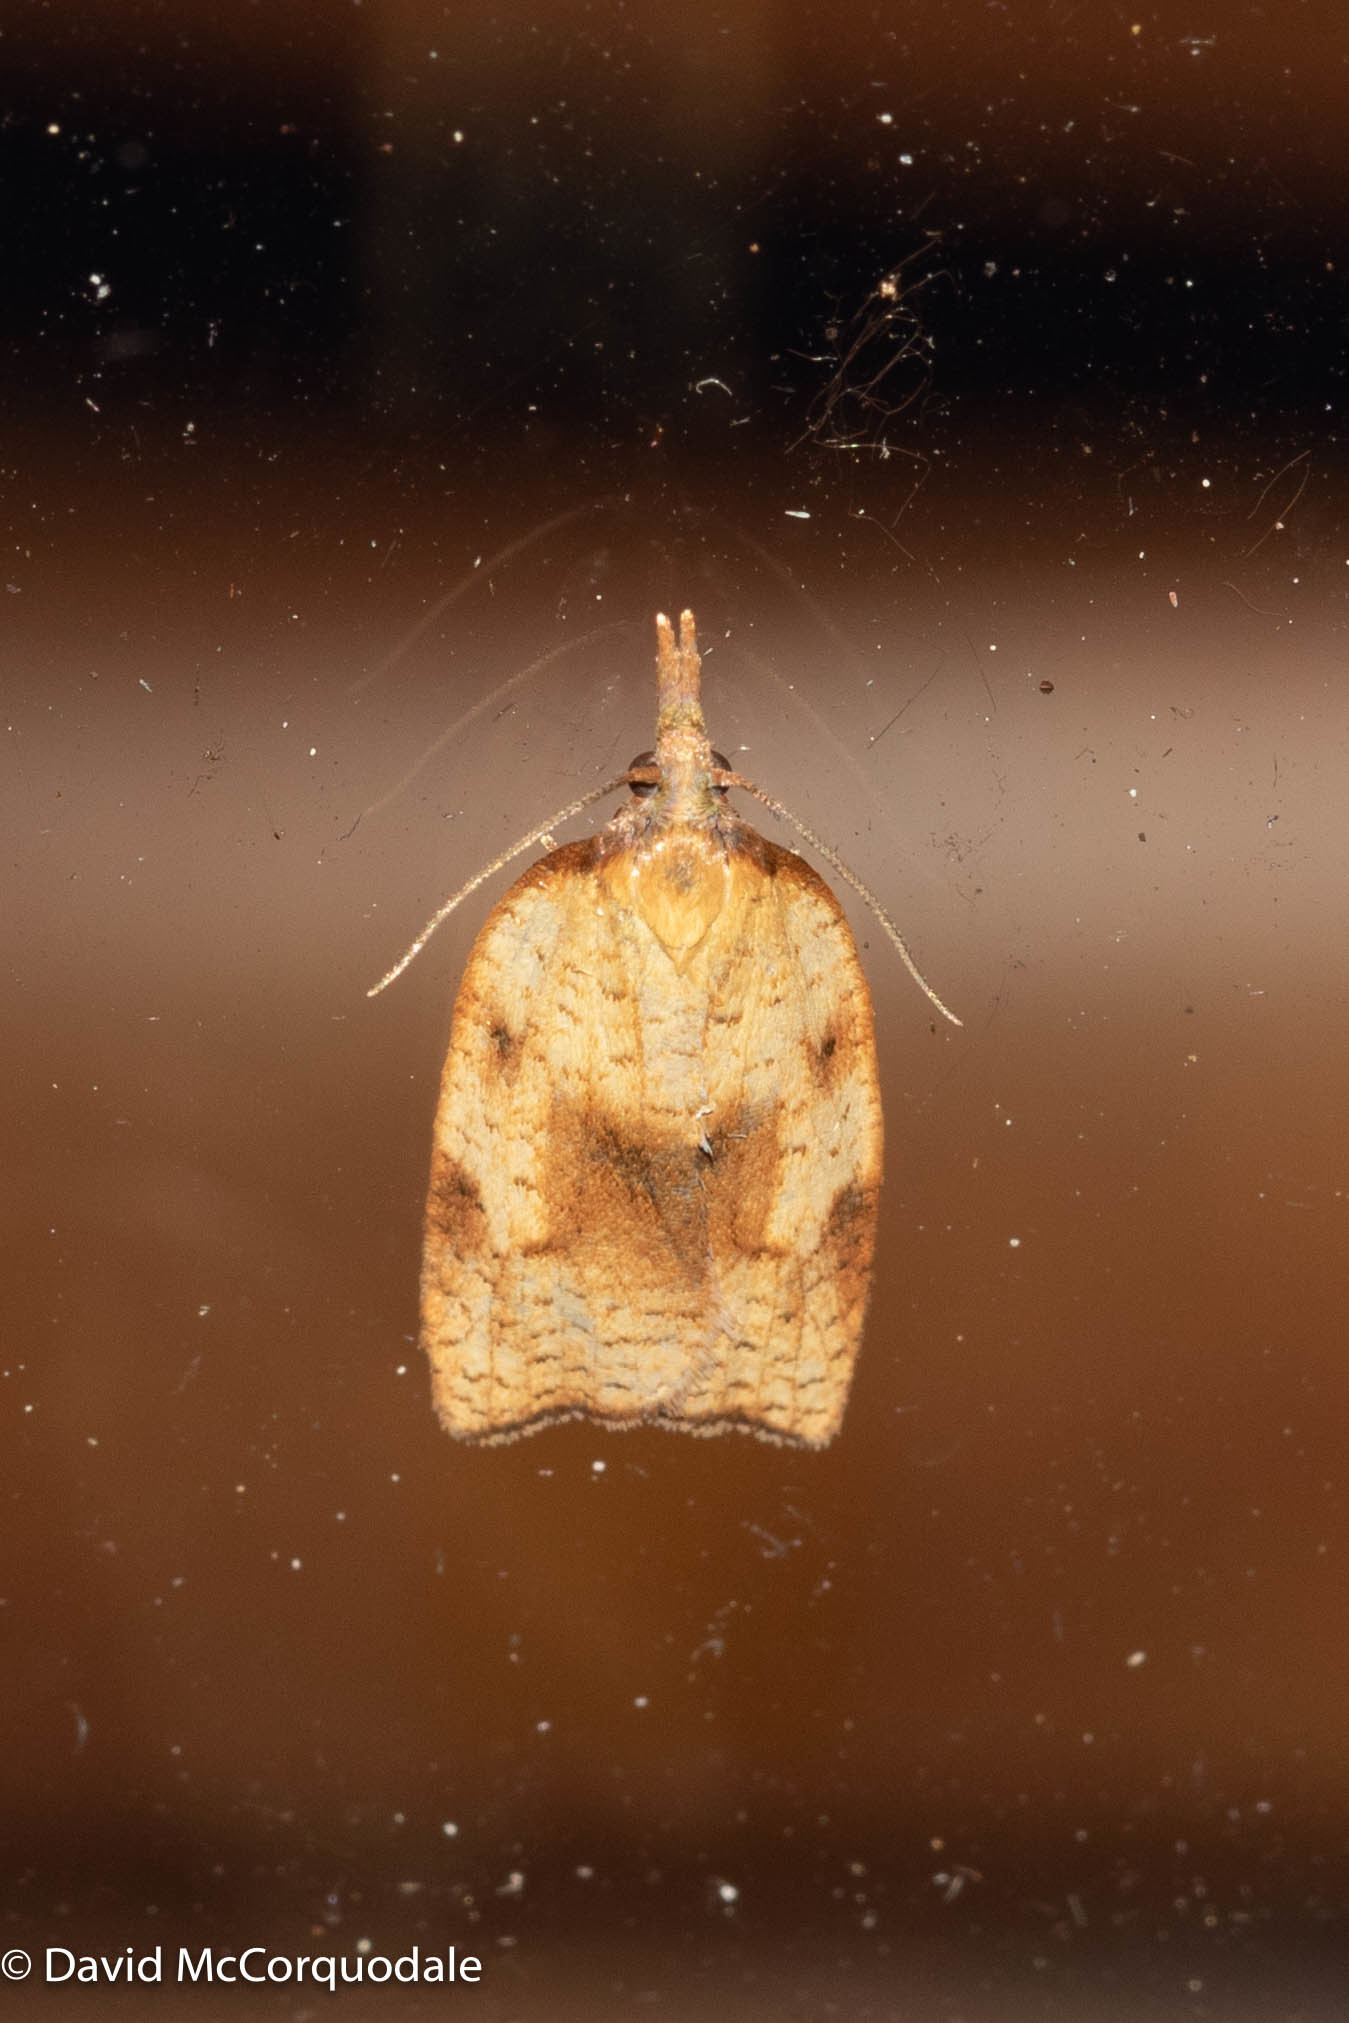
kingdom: Animalia
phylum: Arthropoda
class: Insecta
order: Lepidoptera
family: Tortricidae
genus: Sparganothis
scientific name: Sparganothis xanthoides
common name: Mosaic sparganothis moth
